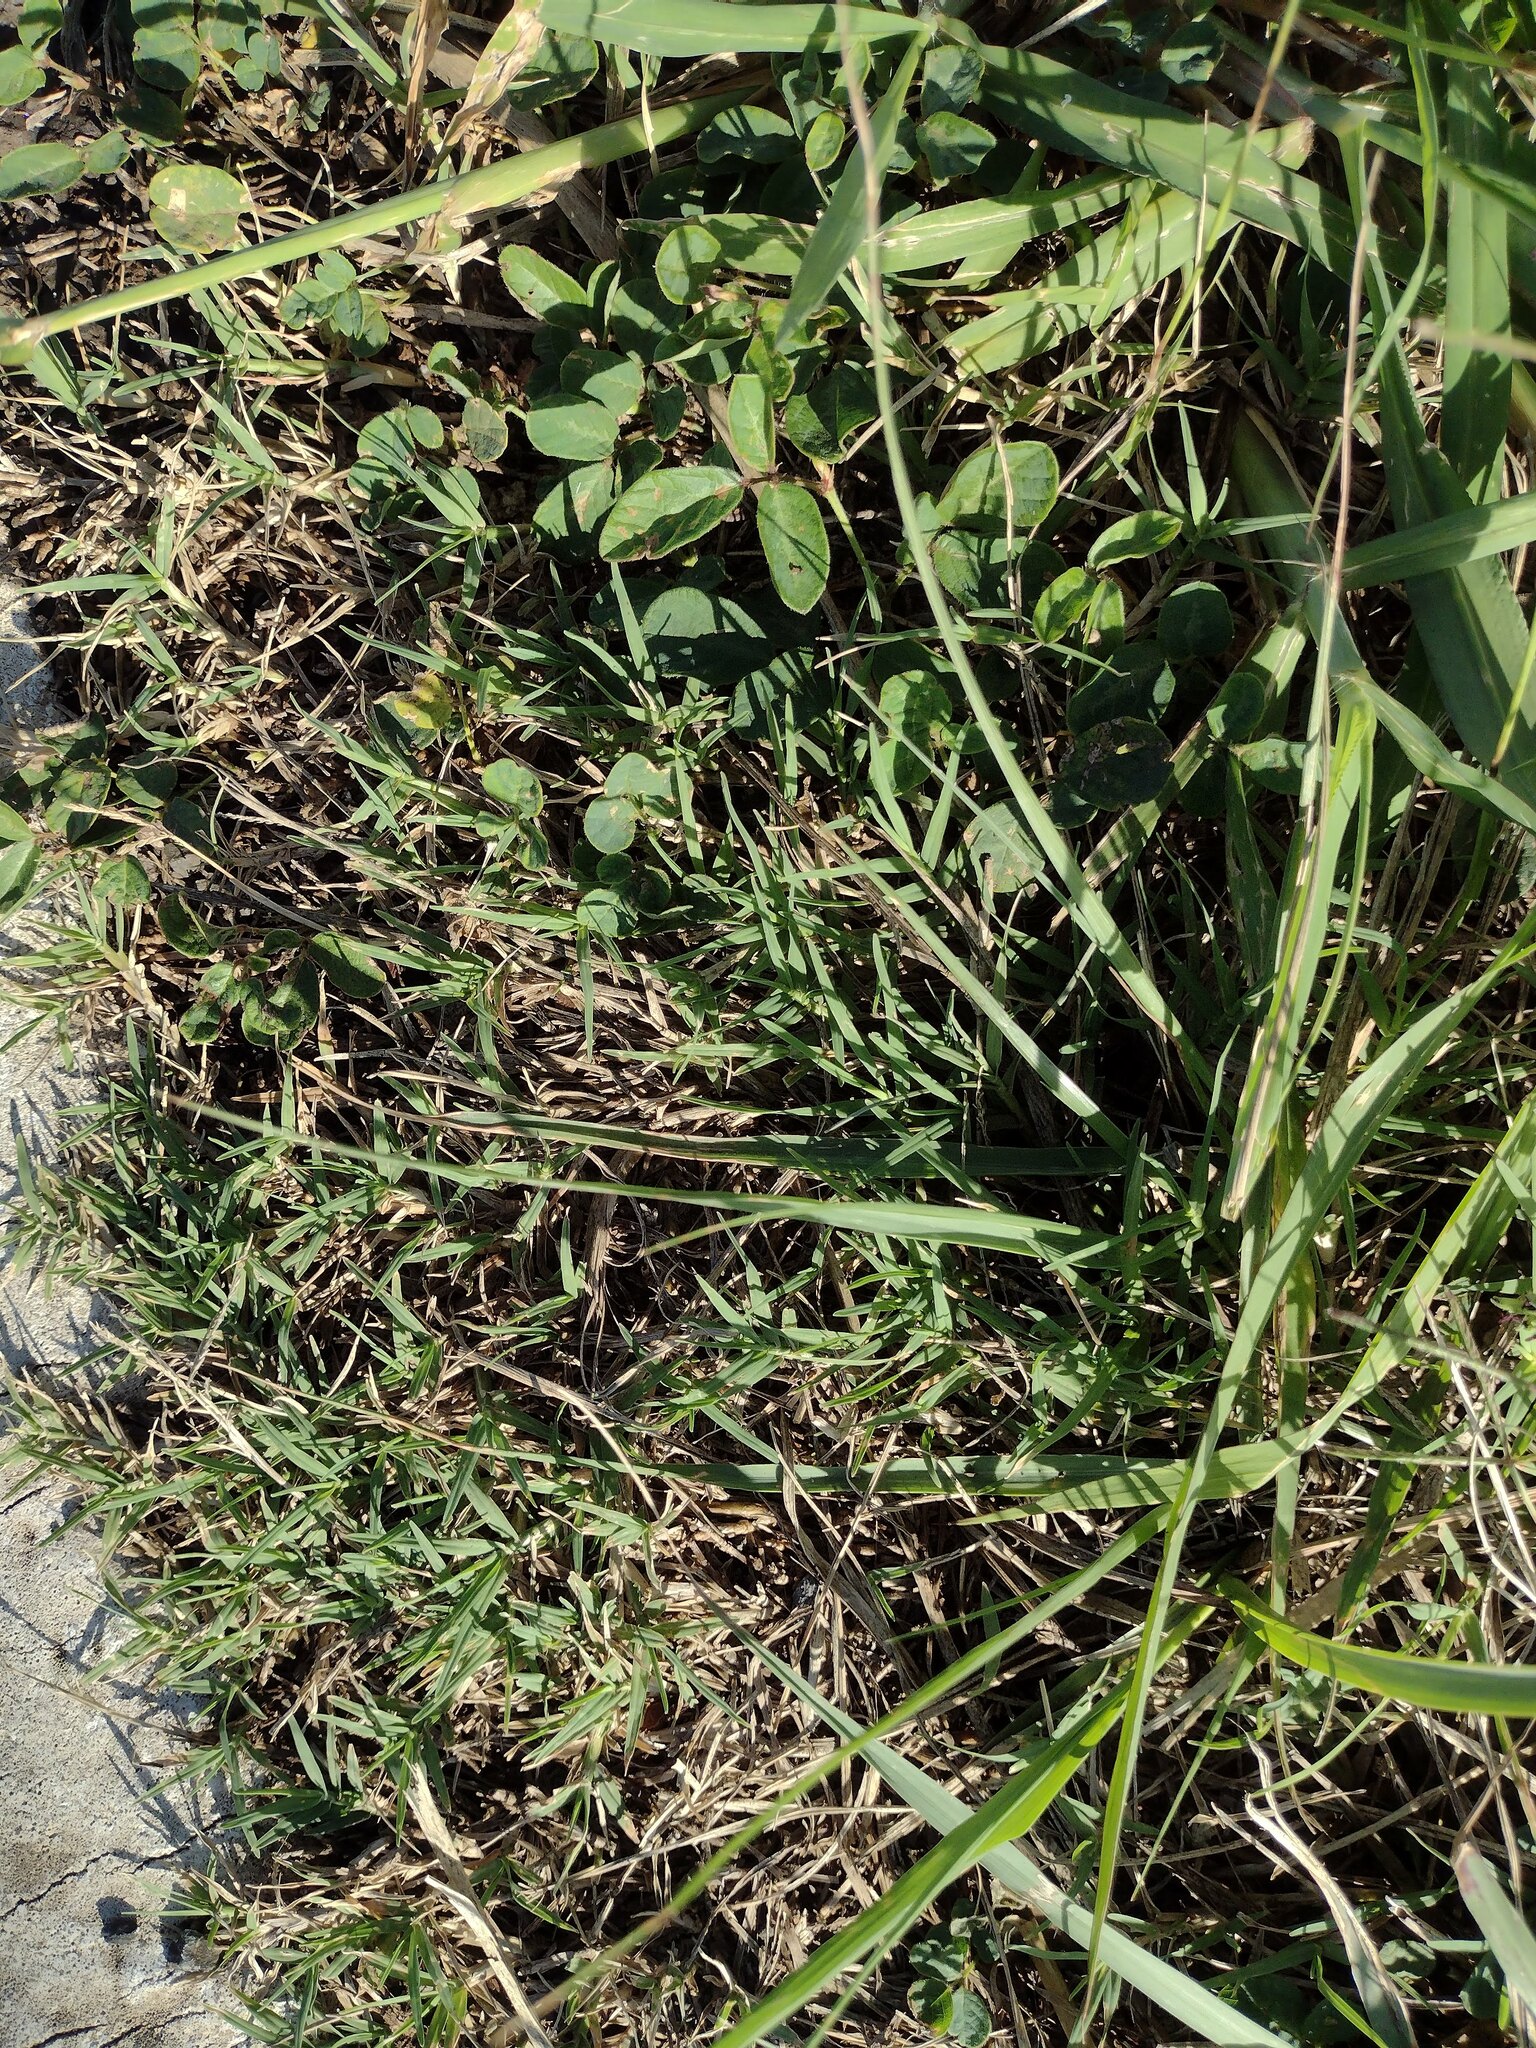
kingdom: Plantae
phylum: Tracheophyta
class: Liliopsida
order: Poales
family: Poaceae
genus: Cynodon
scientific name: Cynodon dactylon
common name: Bermuda grass
